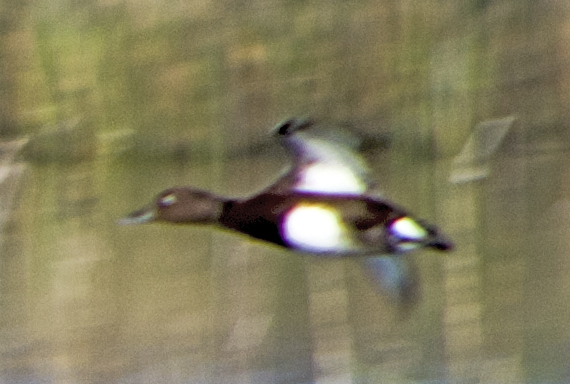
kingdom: Animalia
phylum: Chordata
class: Aves
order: Anseriformes
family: Anatidae
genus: Aythya
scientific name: Aythya nyroca
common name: Ferruginous duck
